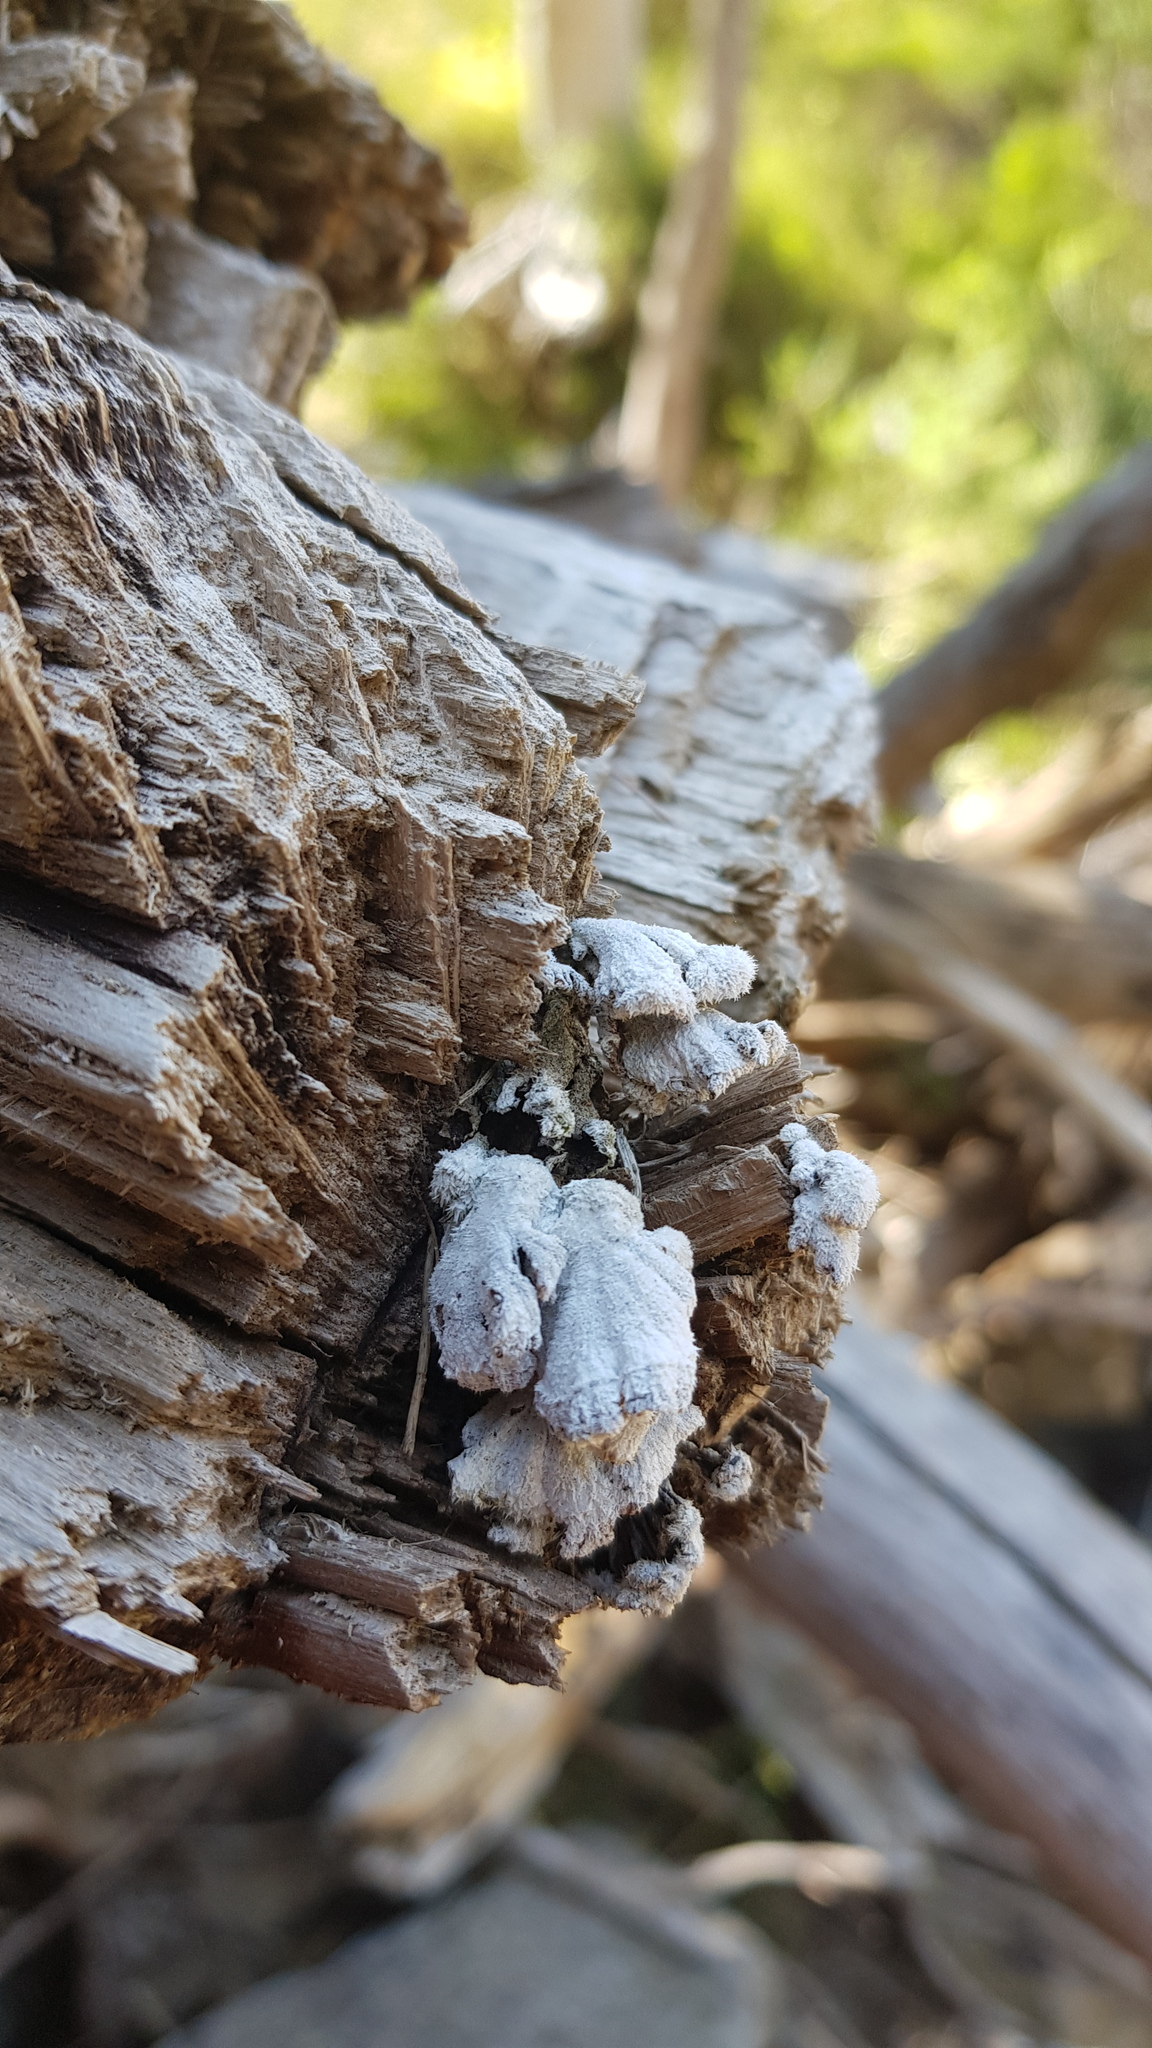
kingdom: Fungi
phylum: Basidiomycota
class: Agaricomycetes
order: Agaricales
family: Schizophyllaceae
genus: Schizophyllum
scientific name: Schizophyllum commune
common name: Common porecrust
